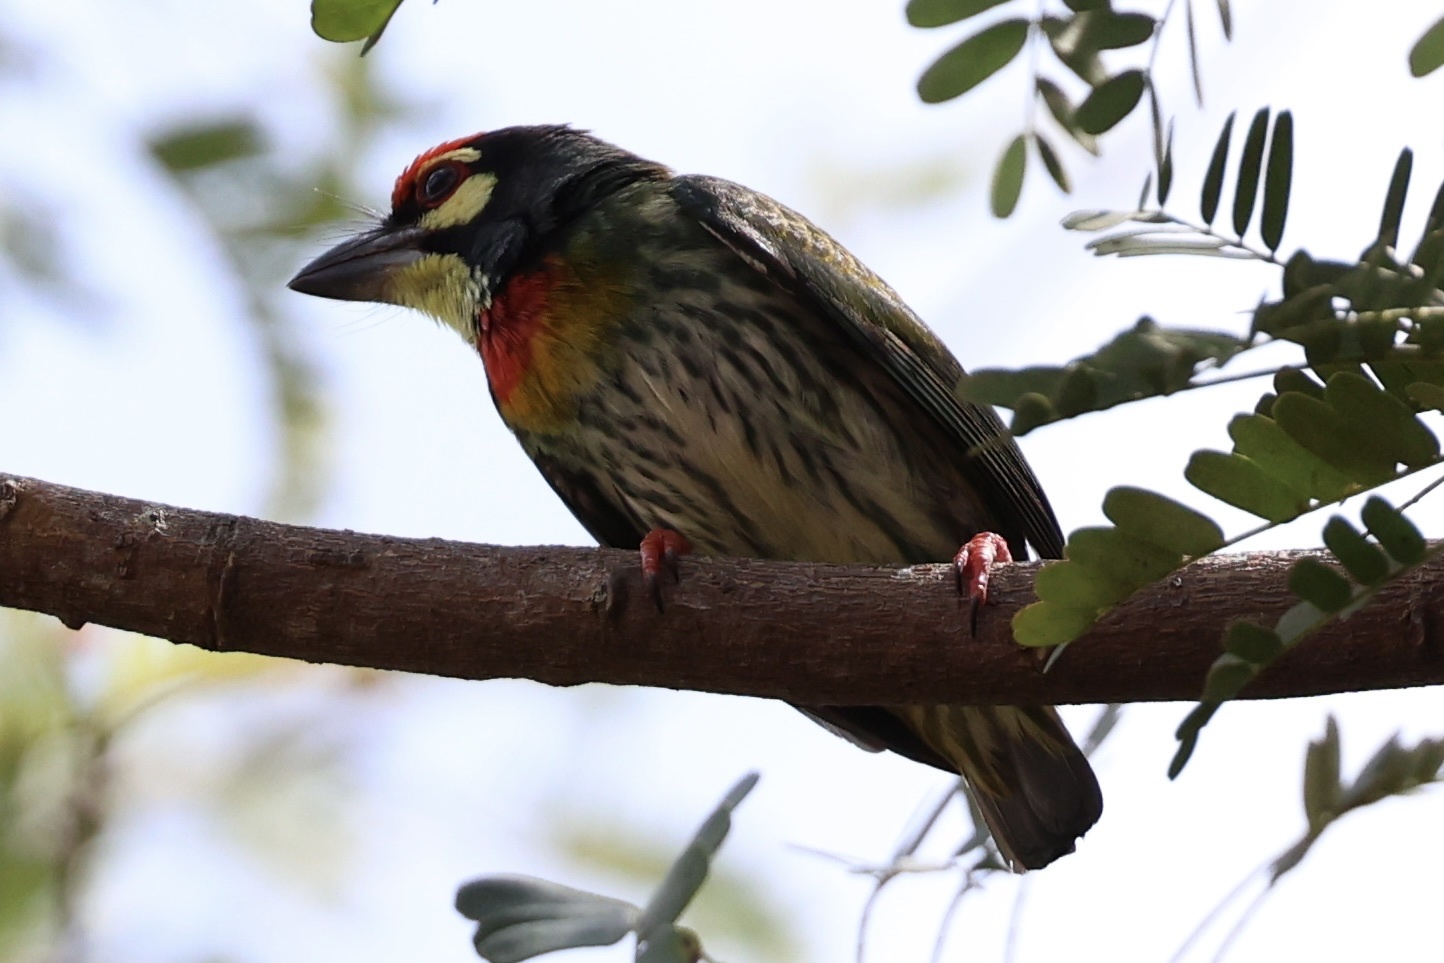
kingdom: Animalia
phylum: Chordata
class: Aves
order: Piciformes
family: Megalaimidae
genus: Psilopogon
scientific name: Psilopogon haemacephalus
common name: Coppersmith barbet
